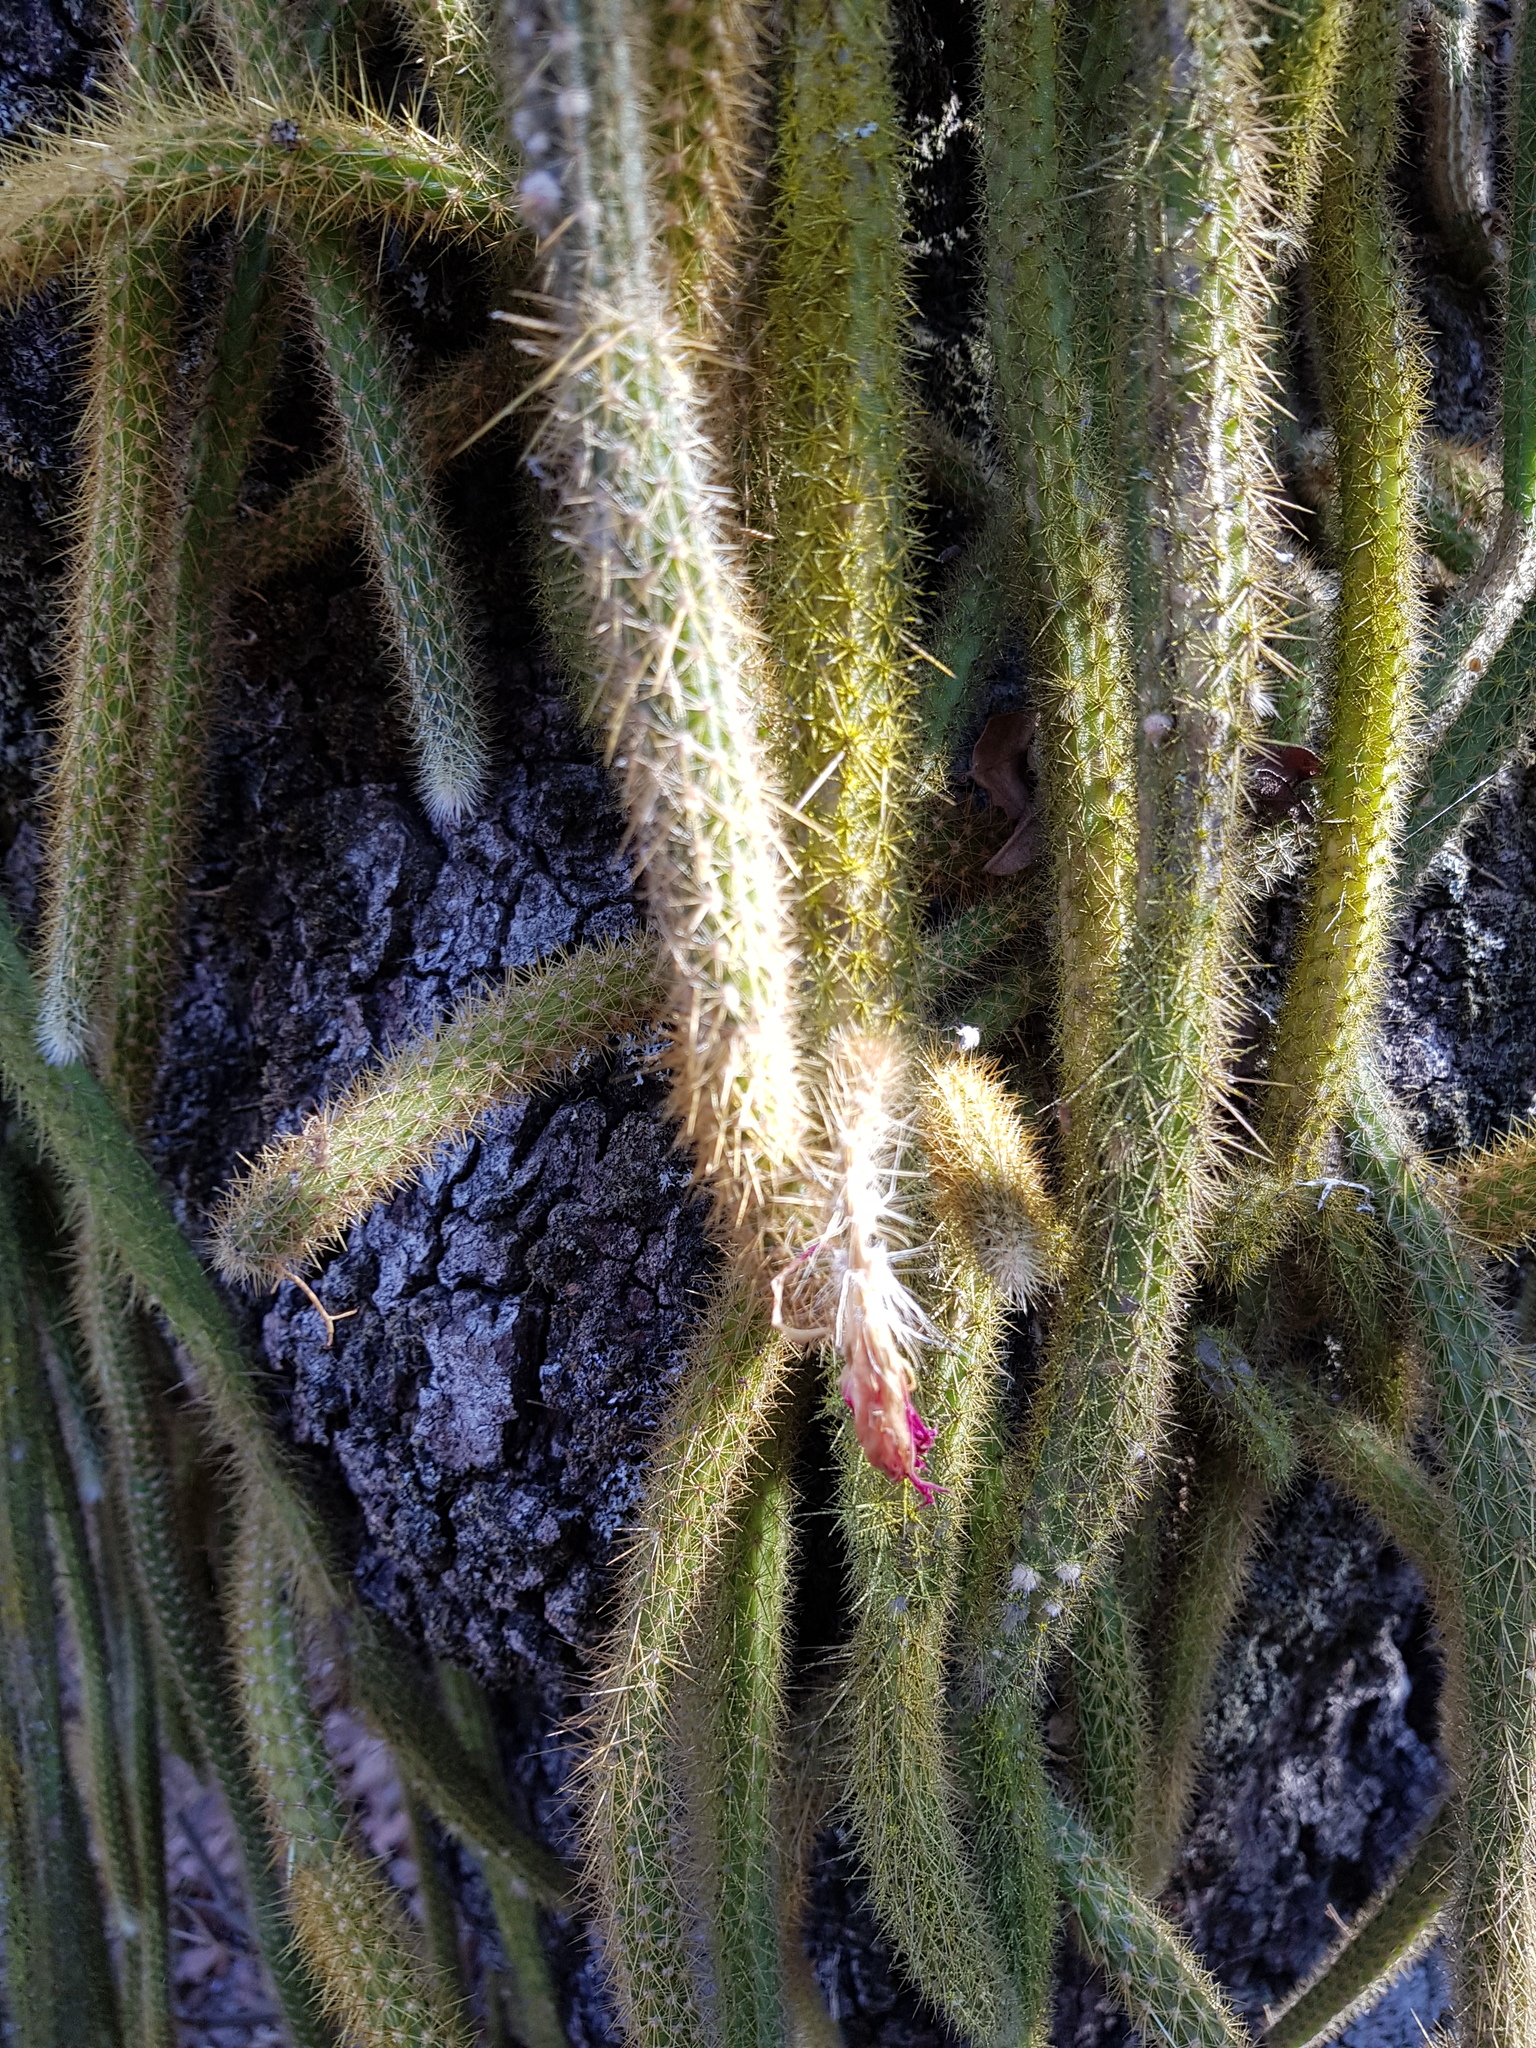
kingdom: Plantae
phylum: Tracheophyta
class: Magnoliopsida
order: Caryophyllales
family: Cactaceae
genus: Aporocactus
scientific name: Aporocactus martianus
